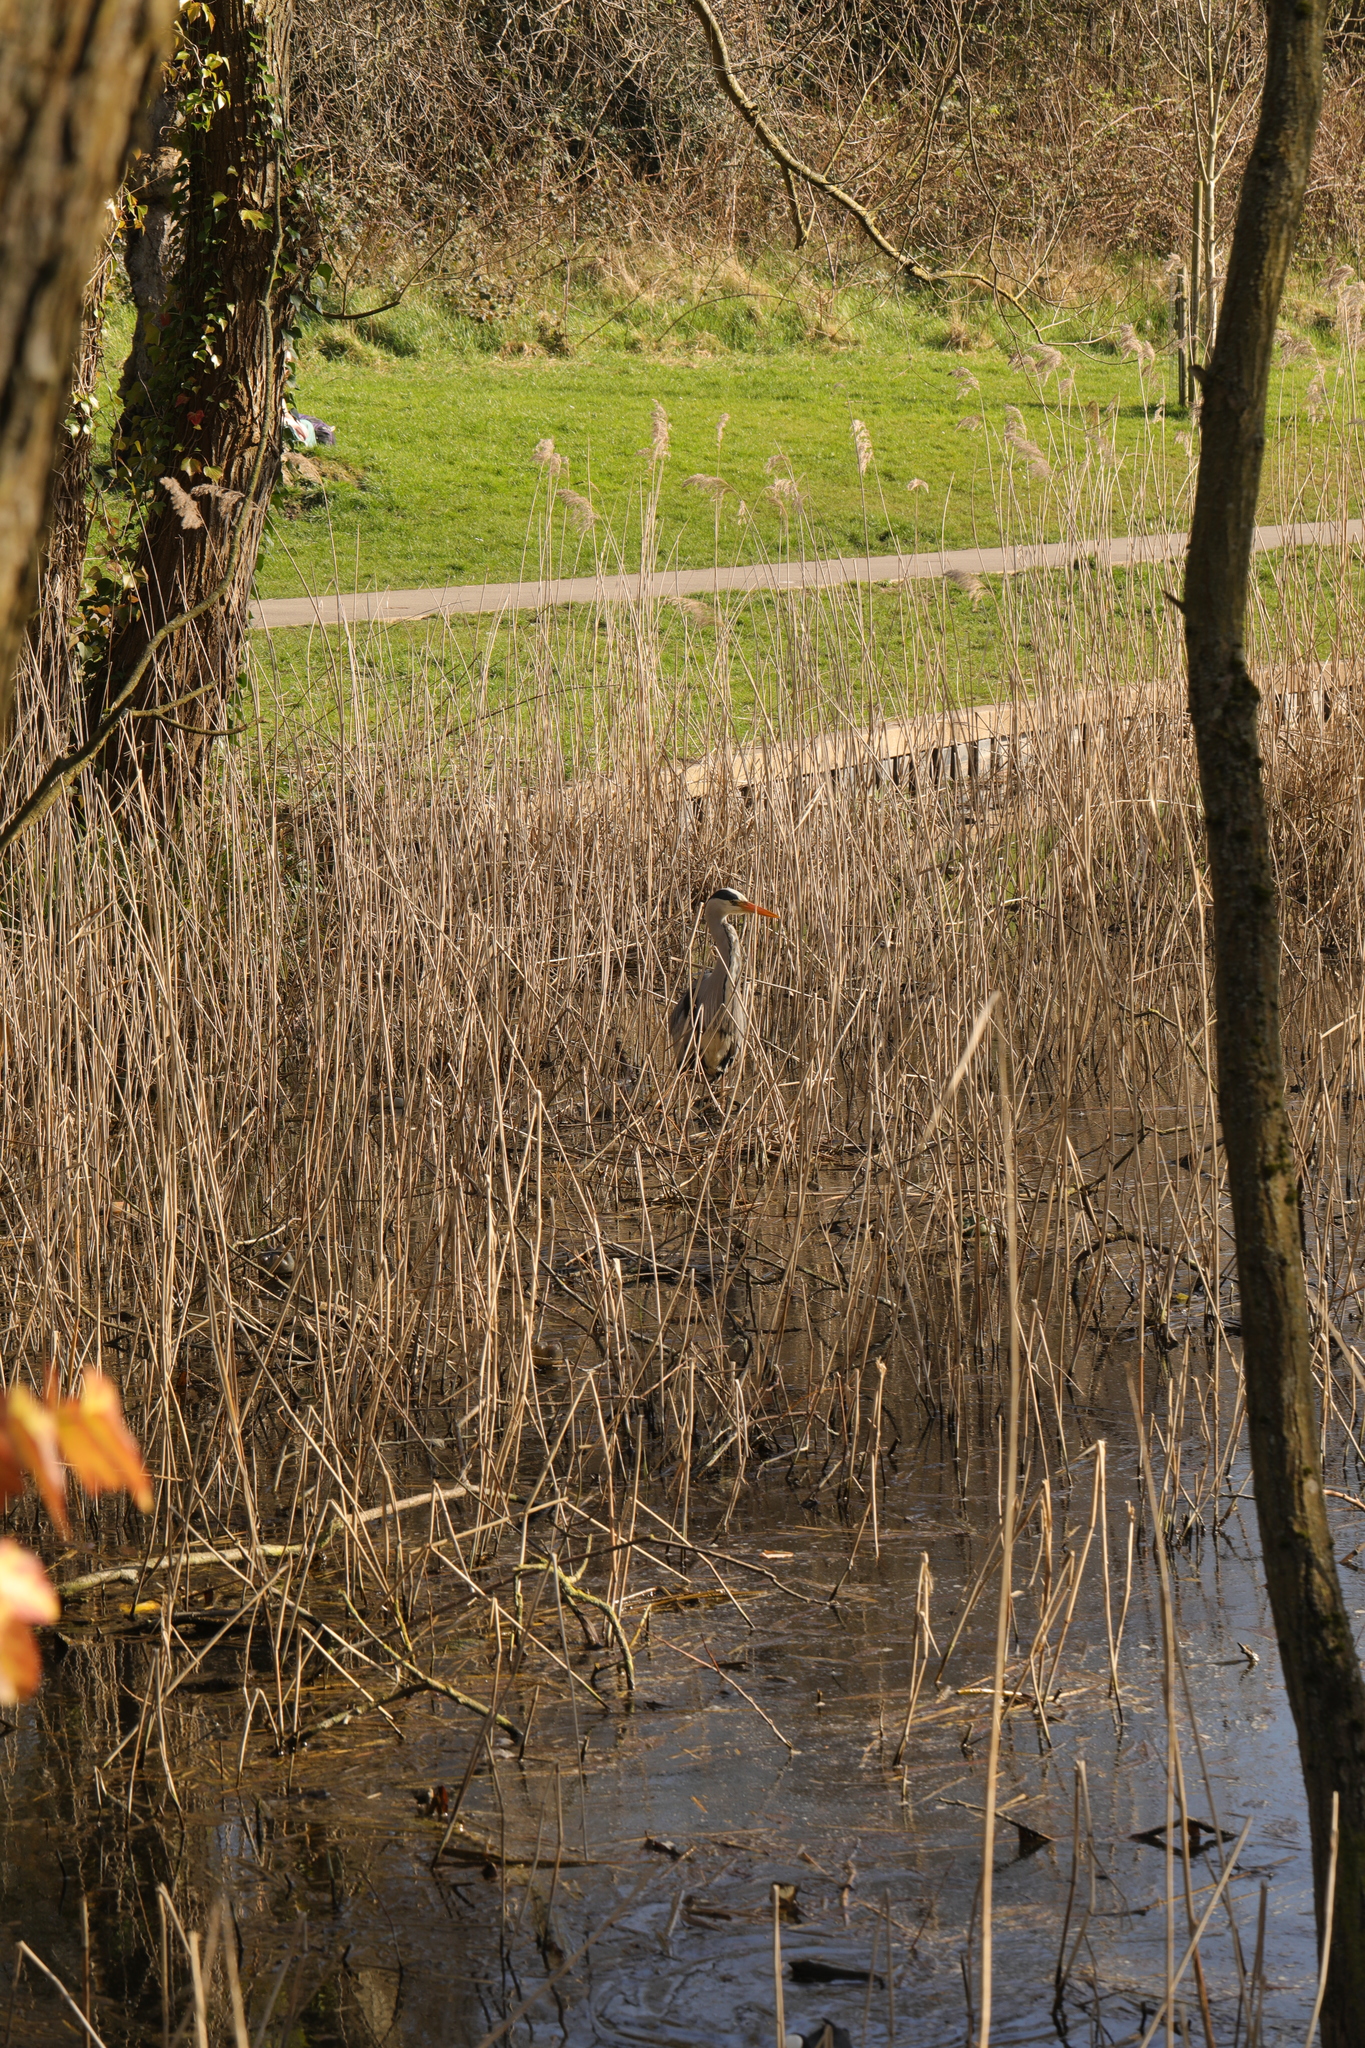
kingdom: Animalia
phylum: Chordata
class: Aves
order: Pelecaniformes
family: Ardeidae
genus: Ardea
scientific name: Ardea cinerea
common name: Grey heron
